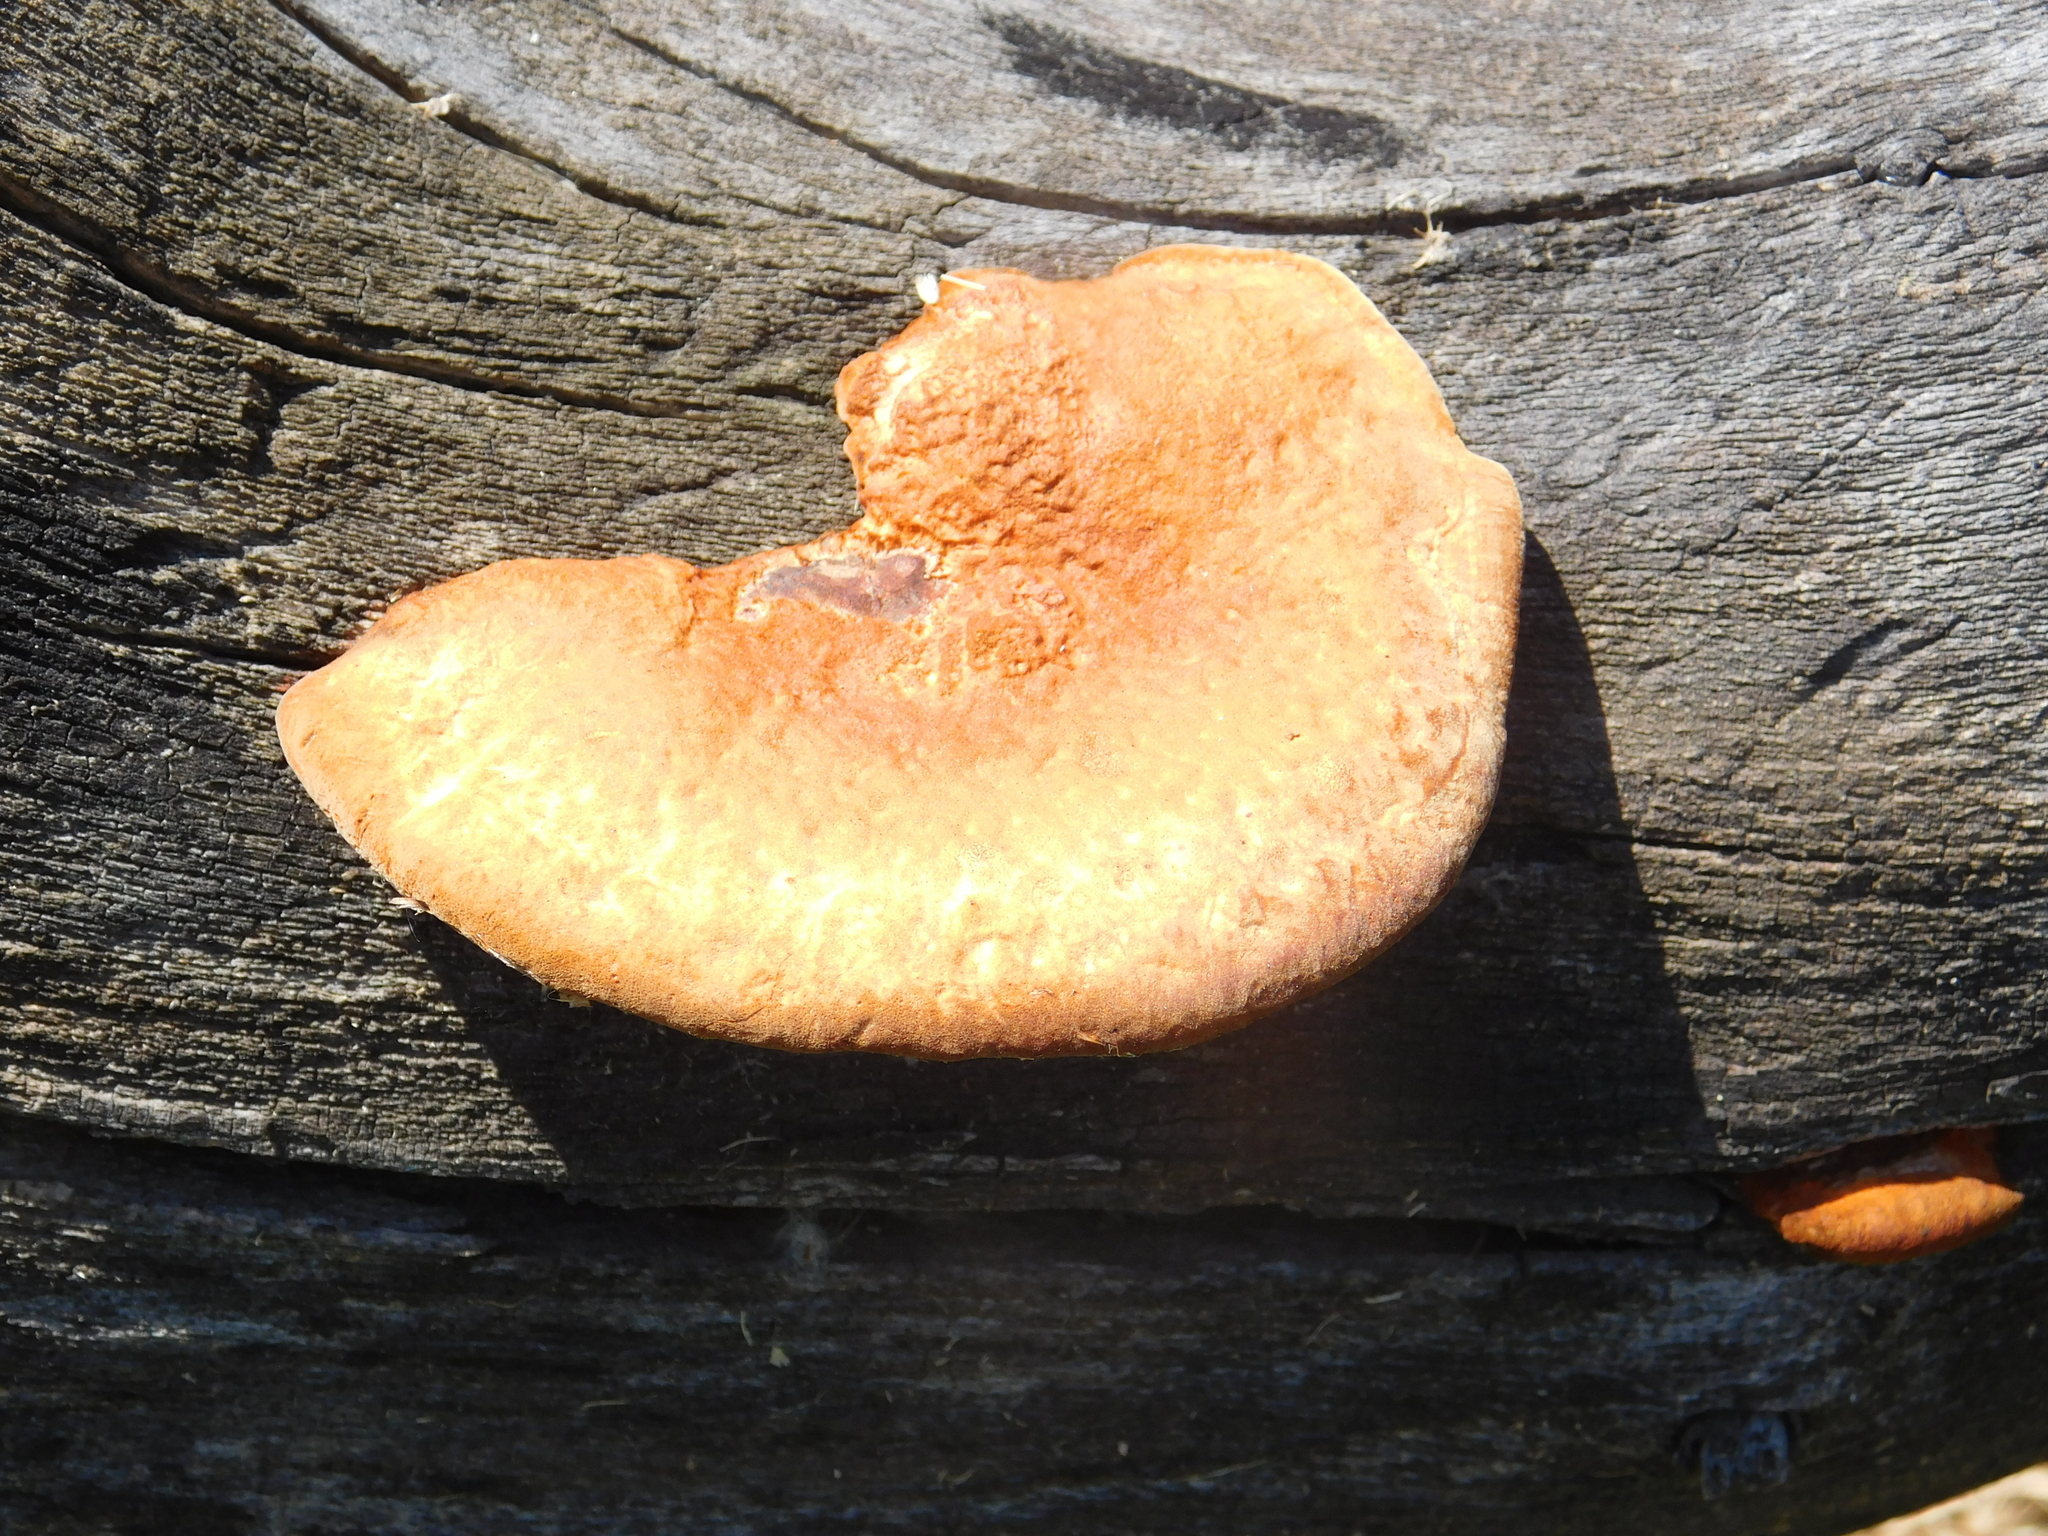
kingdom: Fungi
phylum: Basidiomycota
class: Agaricomycetes
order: Polyporales
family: Polyporaceae
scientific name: Polyporaceae
